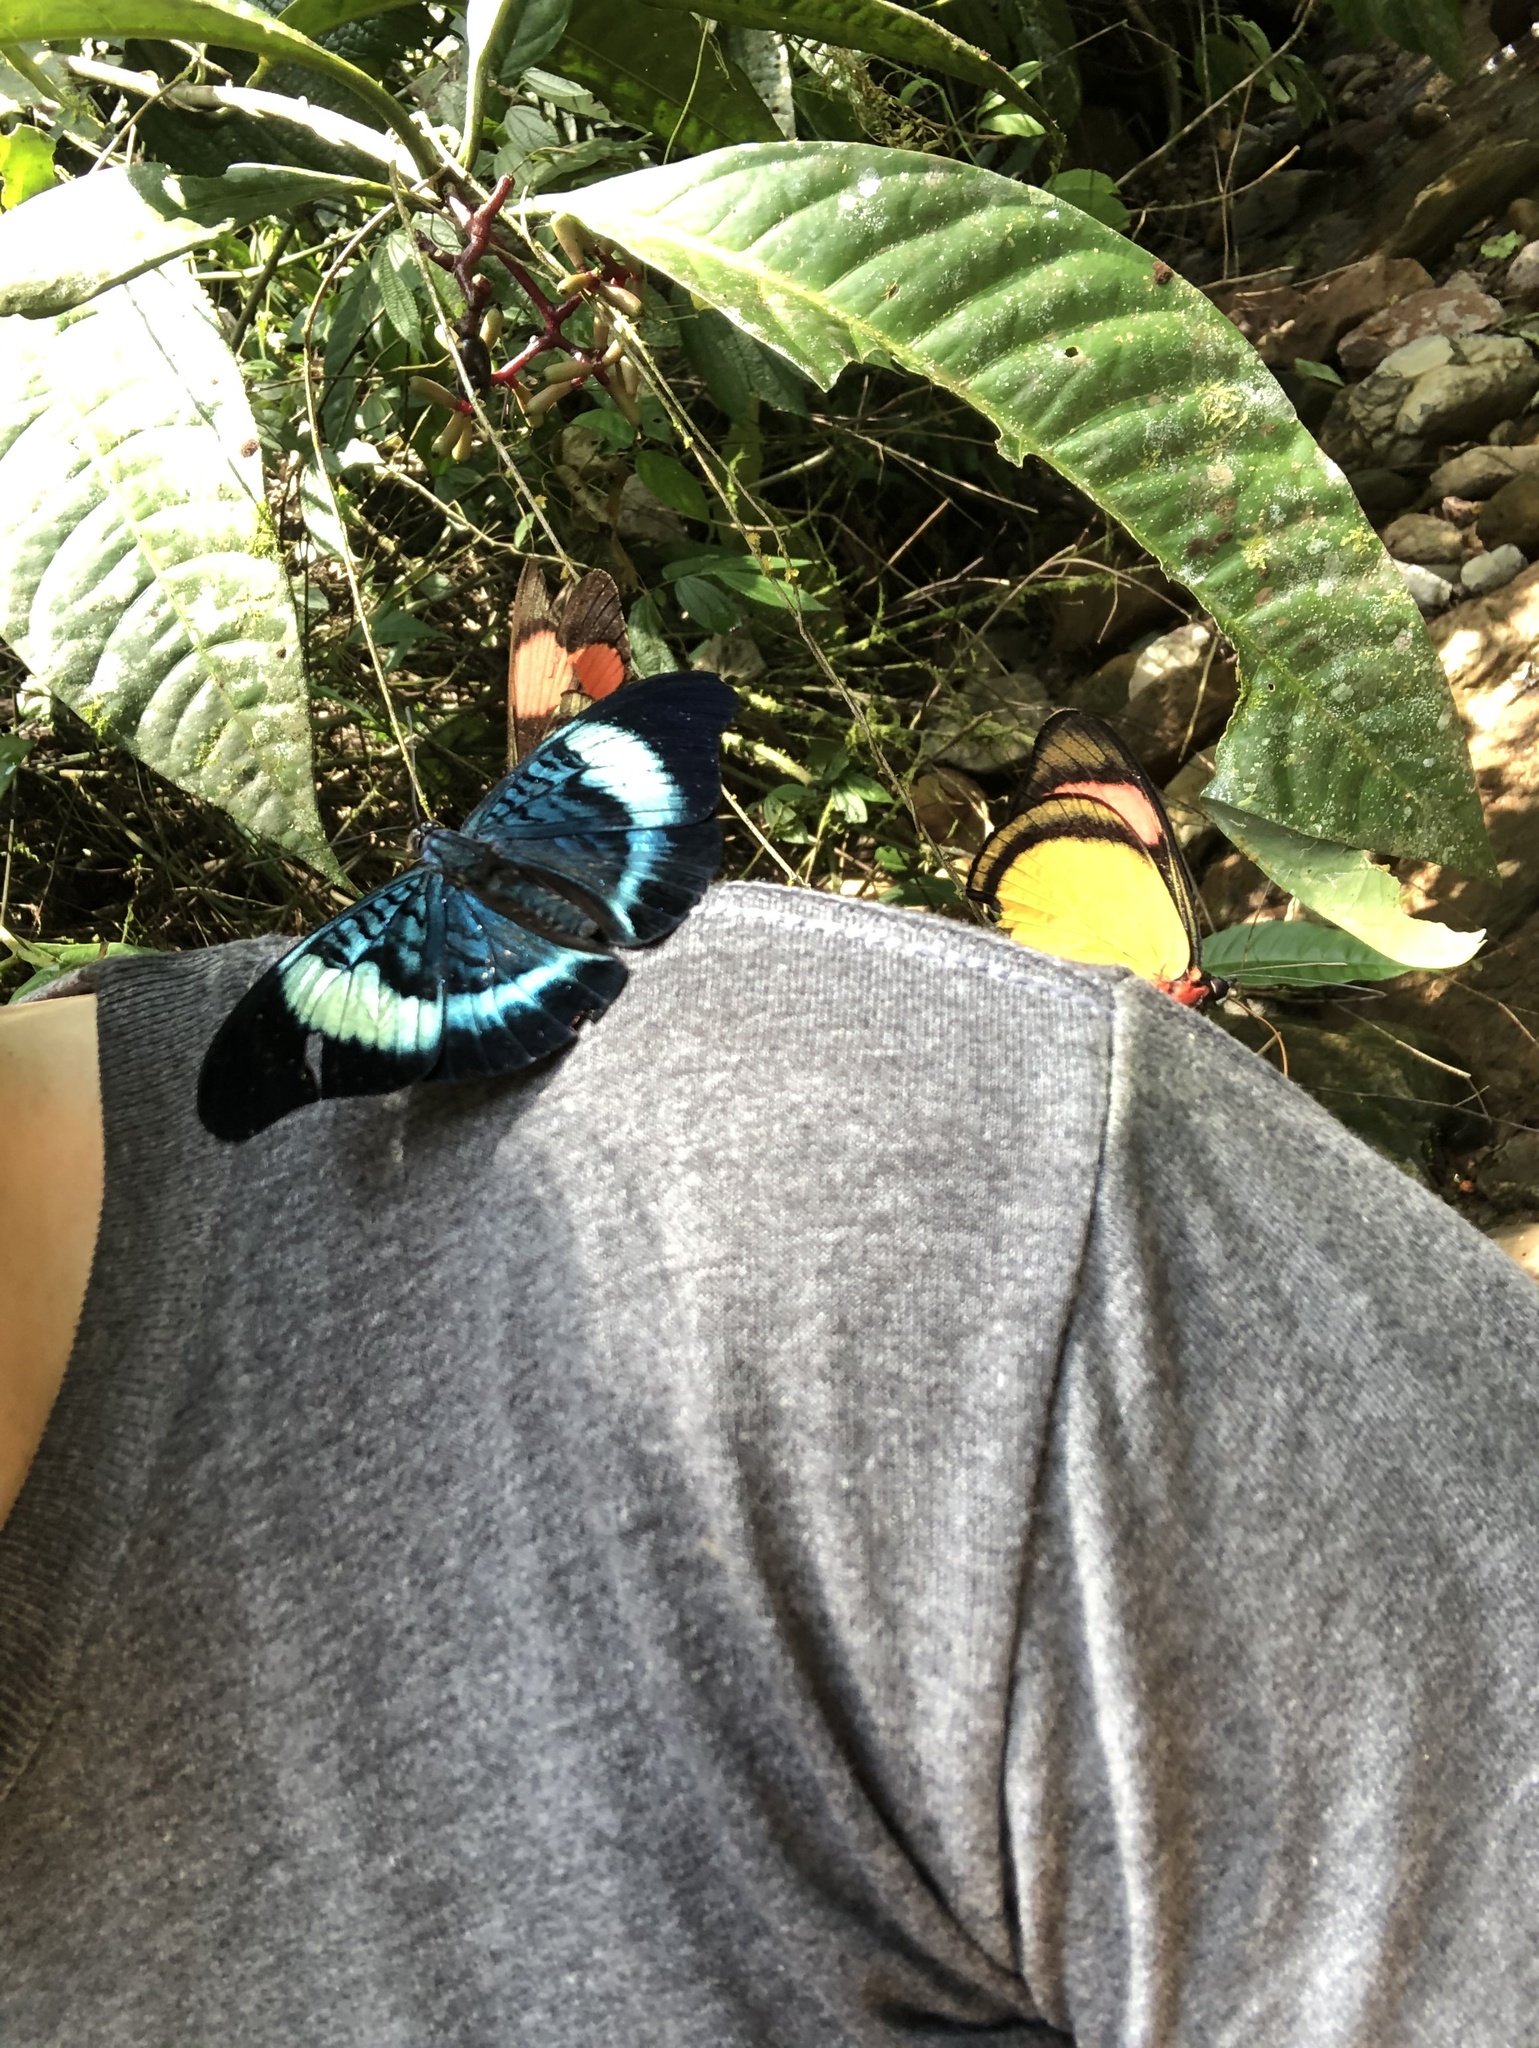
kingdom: Animalia
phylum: Arthropoda
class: Insecta
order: Lepidoptera
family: Nymphalidae
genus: Panacea
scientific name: Panacea prola
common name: Red flasher
